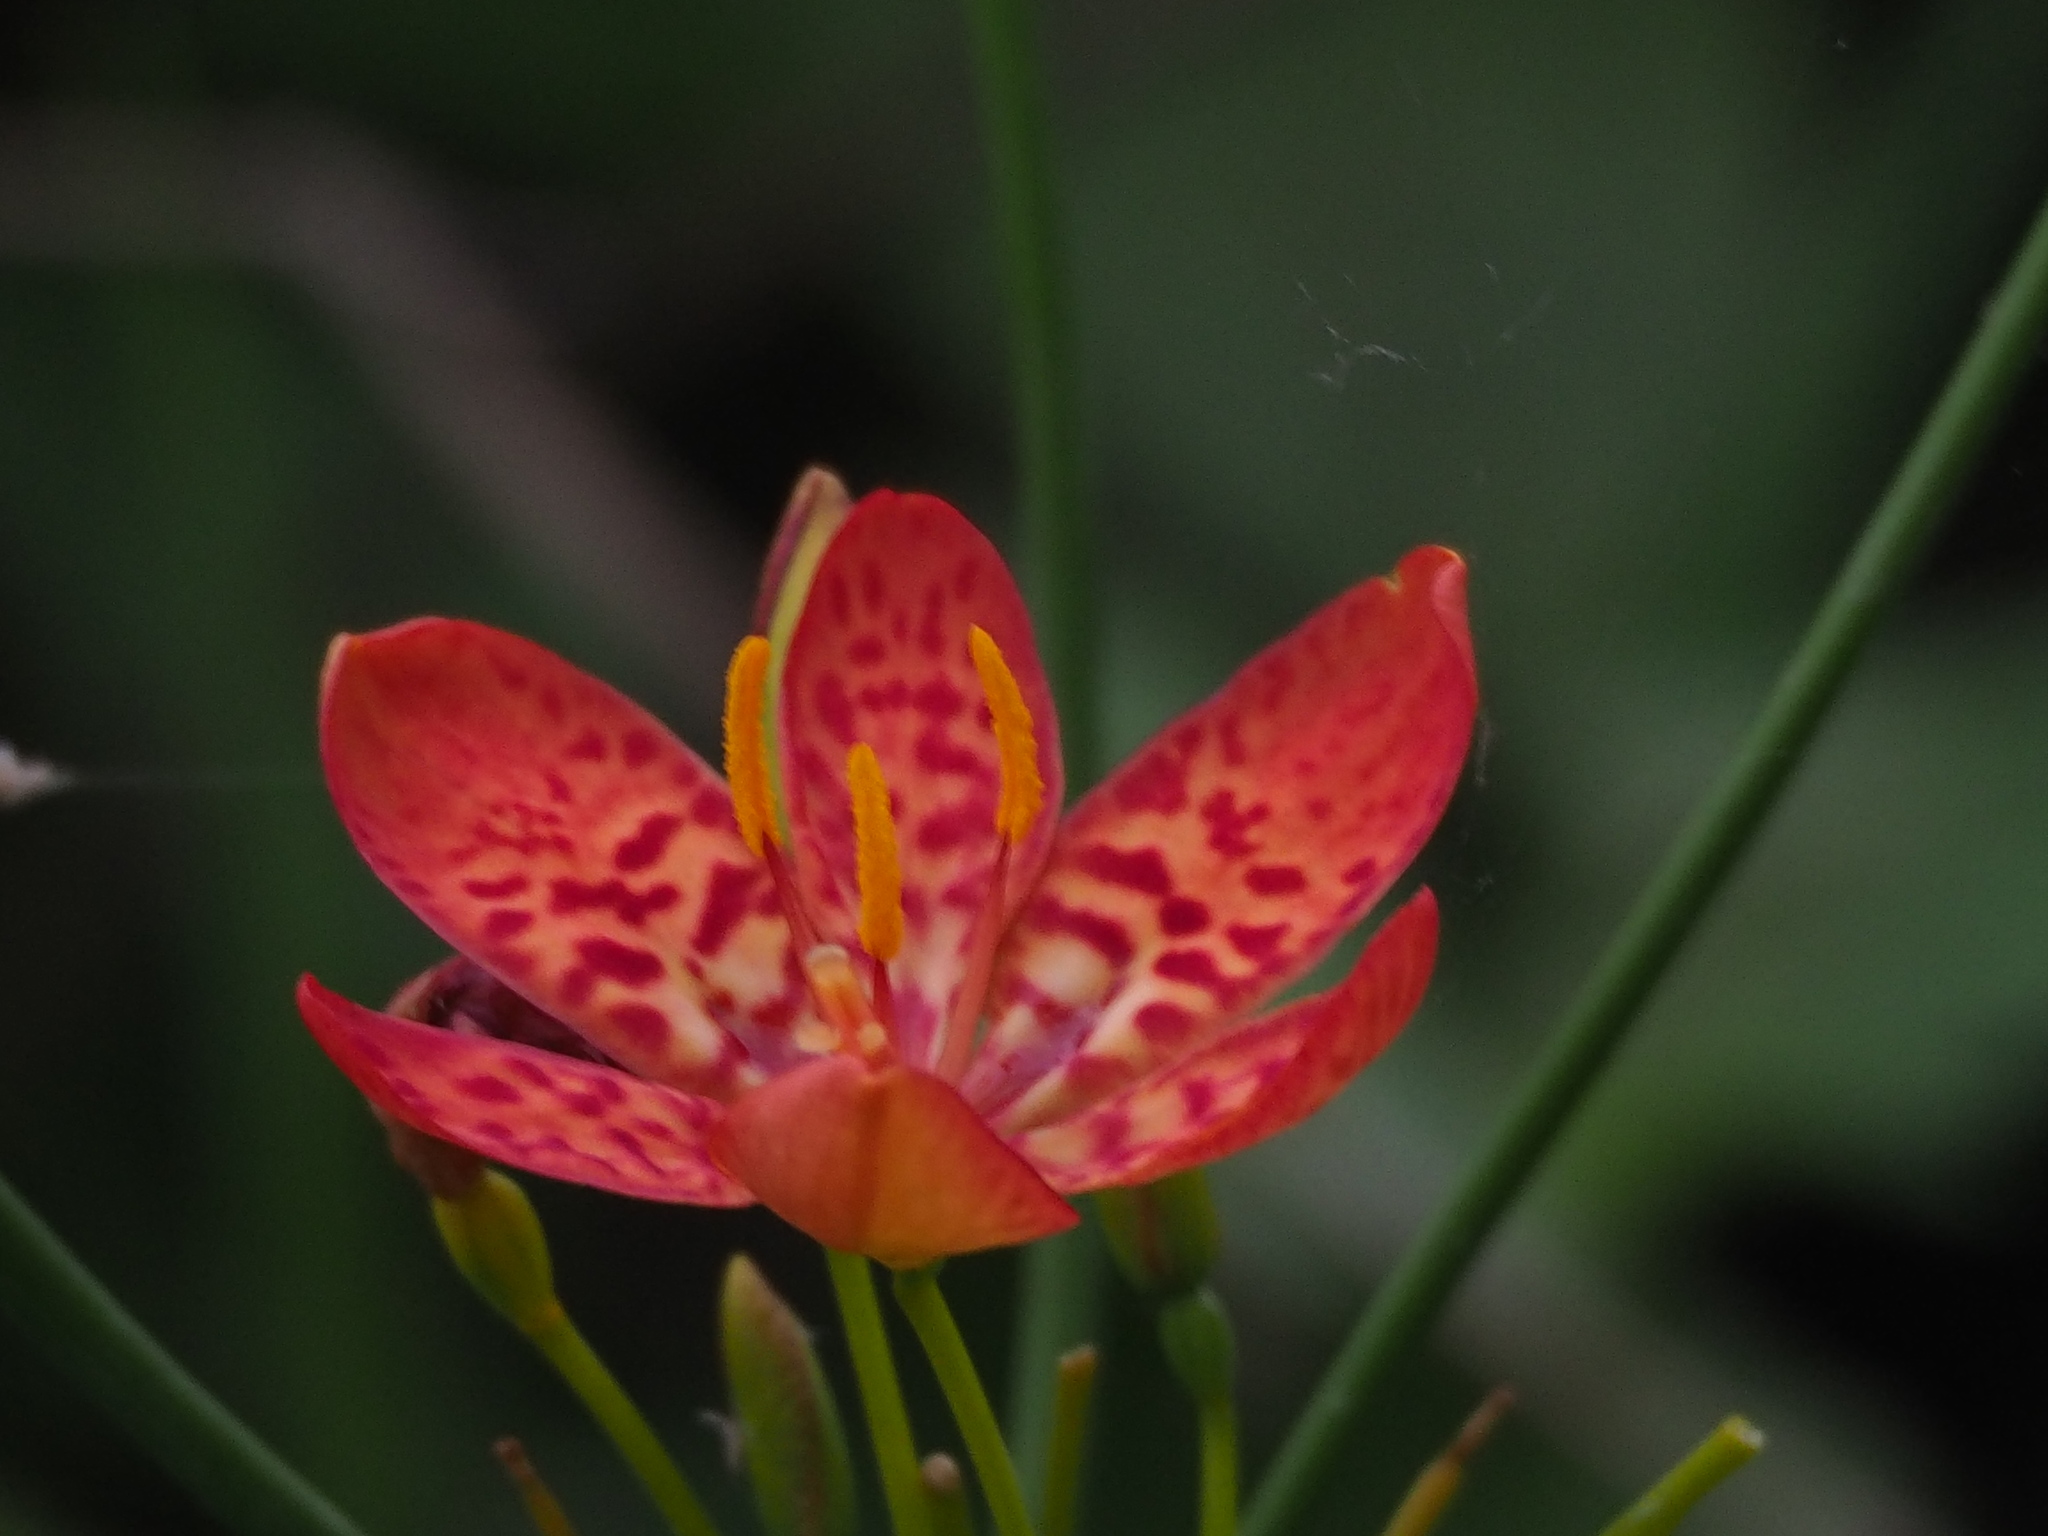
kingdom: Plantae
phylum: Tracheophyta
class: Liliopsida
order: Asparagales
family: Iridaceae
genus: Iris
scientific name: Iris domestica
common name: Belamcanda
